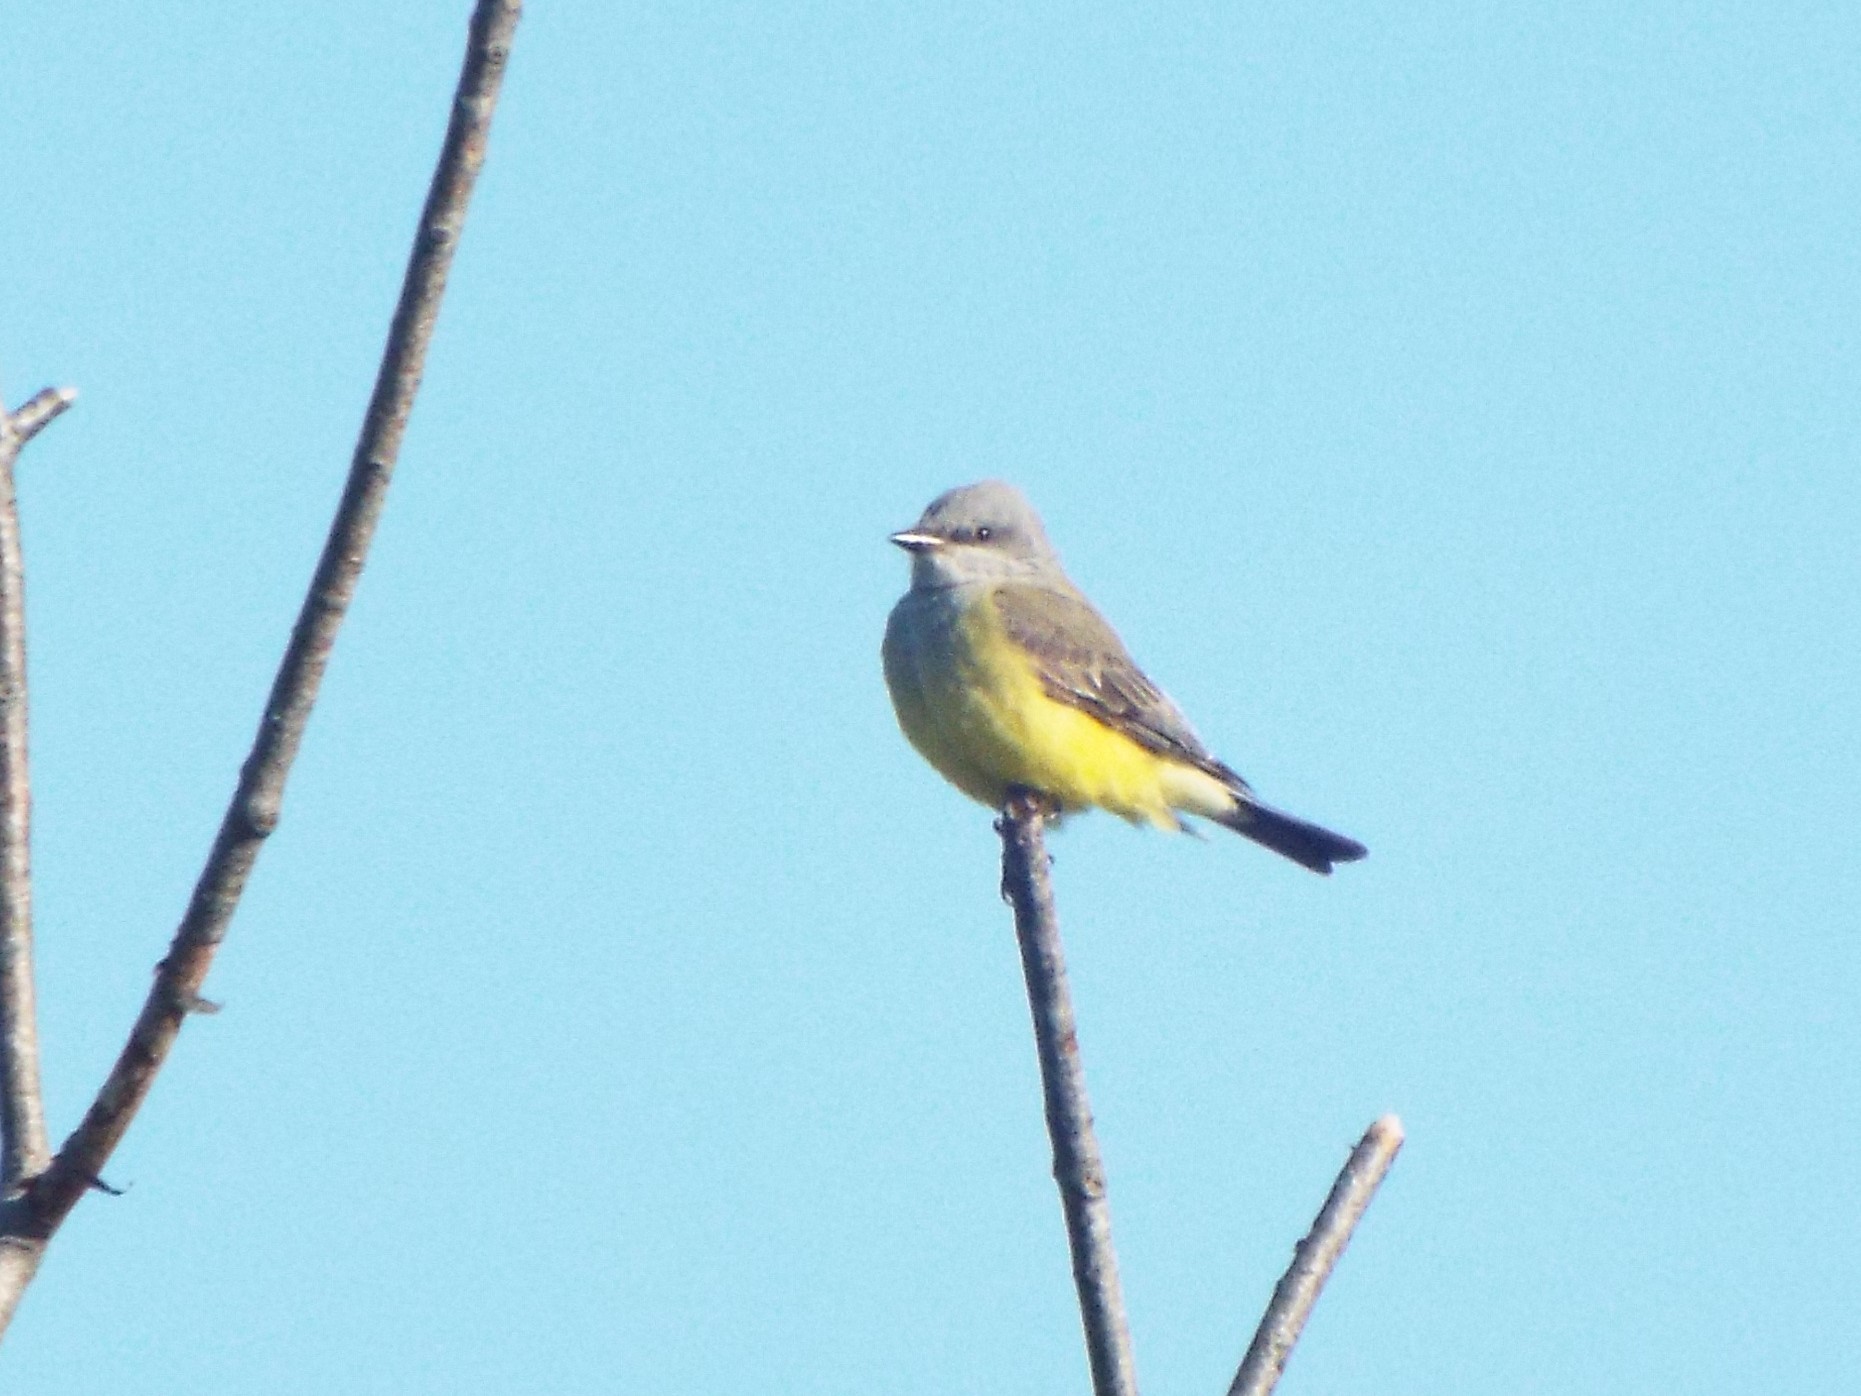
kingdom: Animalia
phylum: Chordata
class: Aves
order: Passeriformes
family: Tyrannidae
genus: Tyrannus
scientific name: Tyrannus verticalis
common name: Western kingbird
